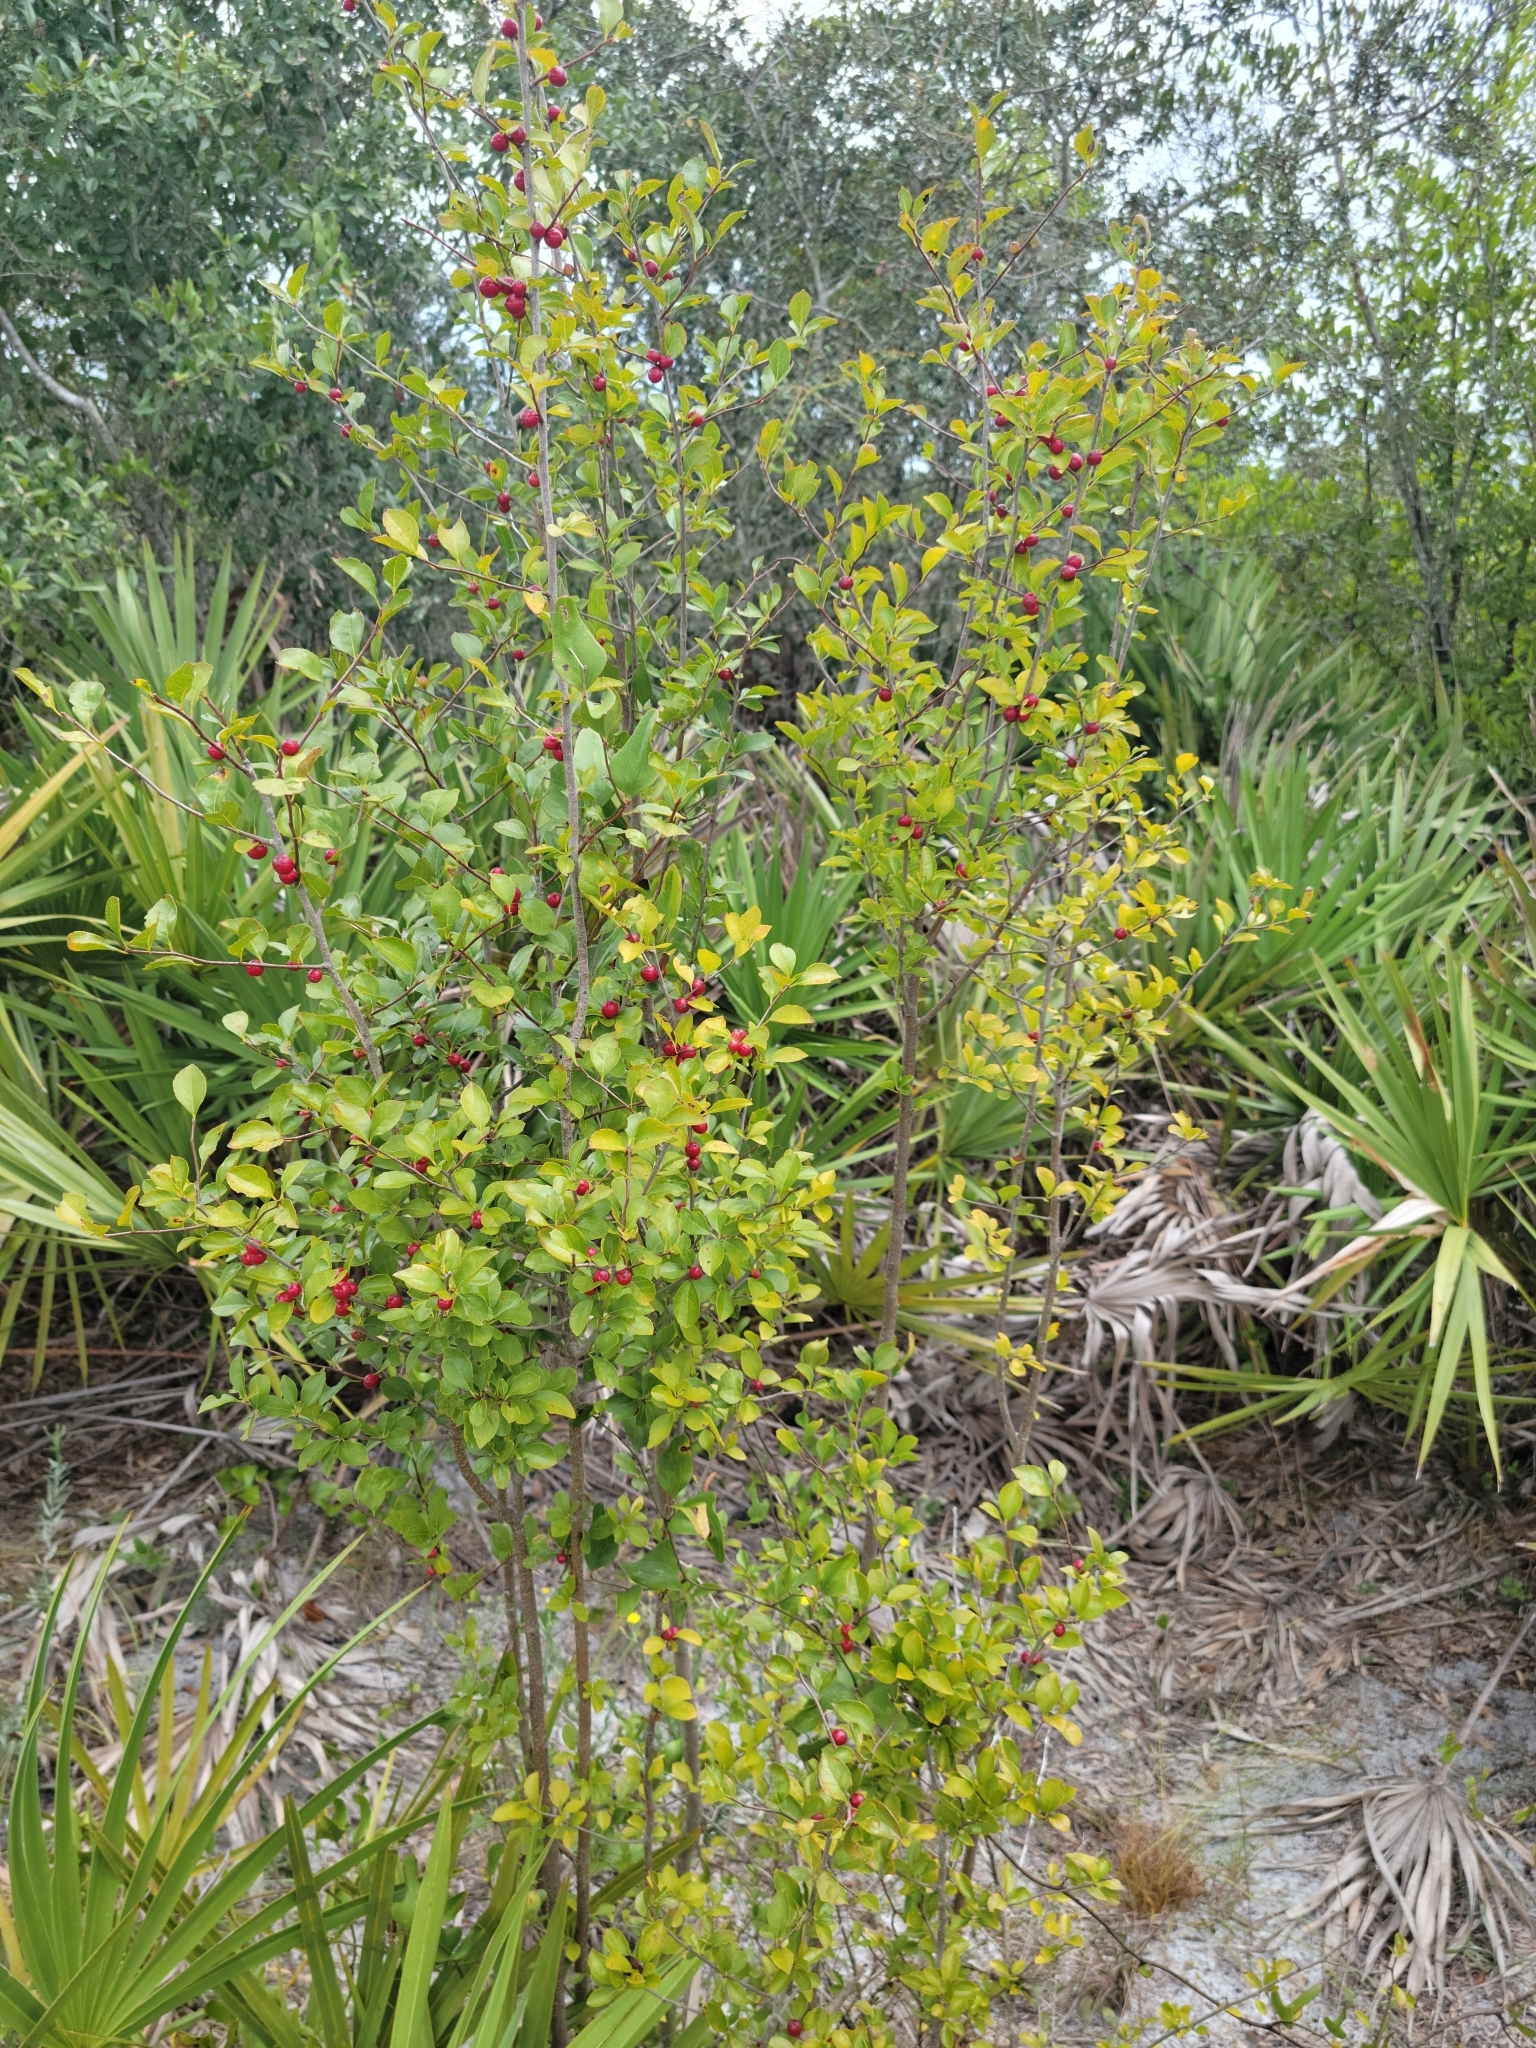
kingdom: Plantae
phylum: Tracheophyta
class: Magnoliopsida
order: Aquifoliales
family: Aquifoliaceae
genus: Ilex
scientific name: Ilex ambigua
